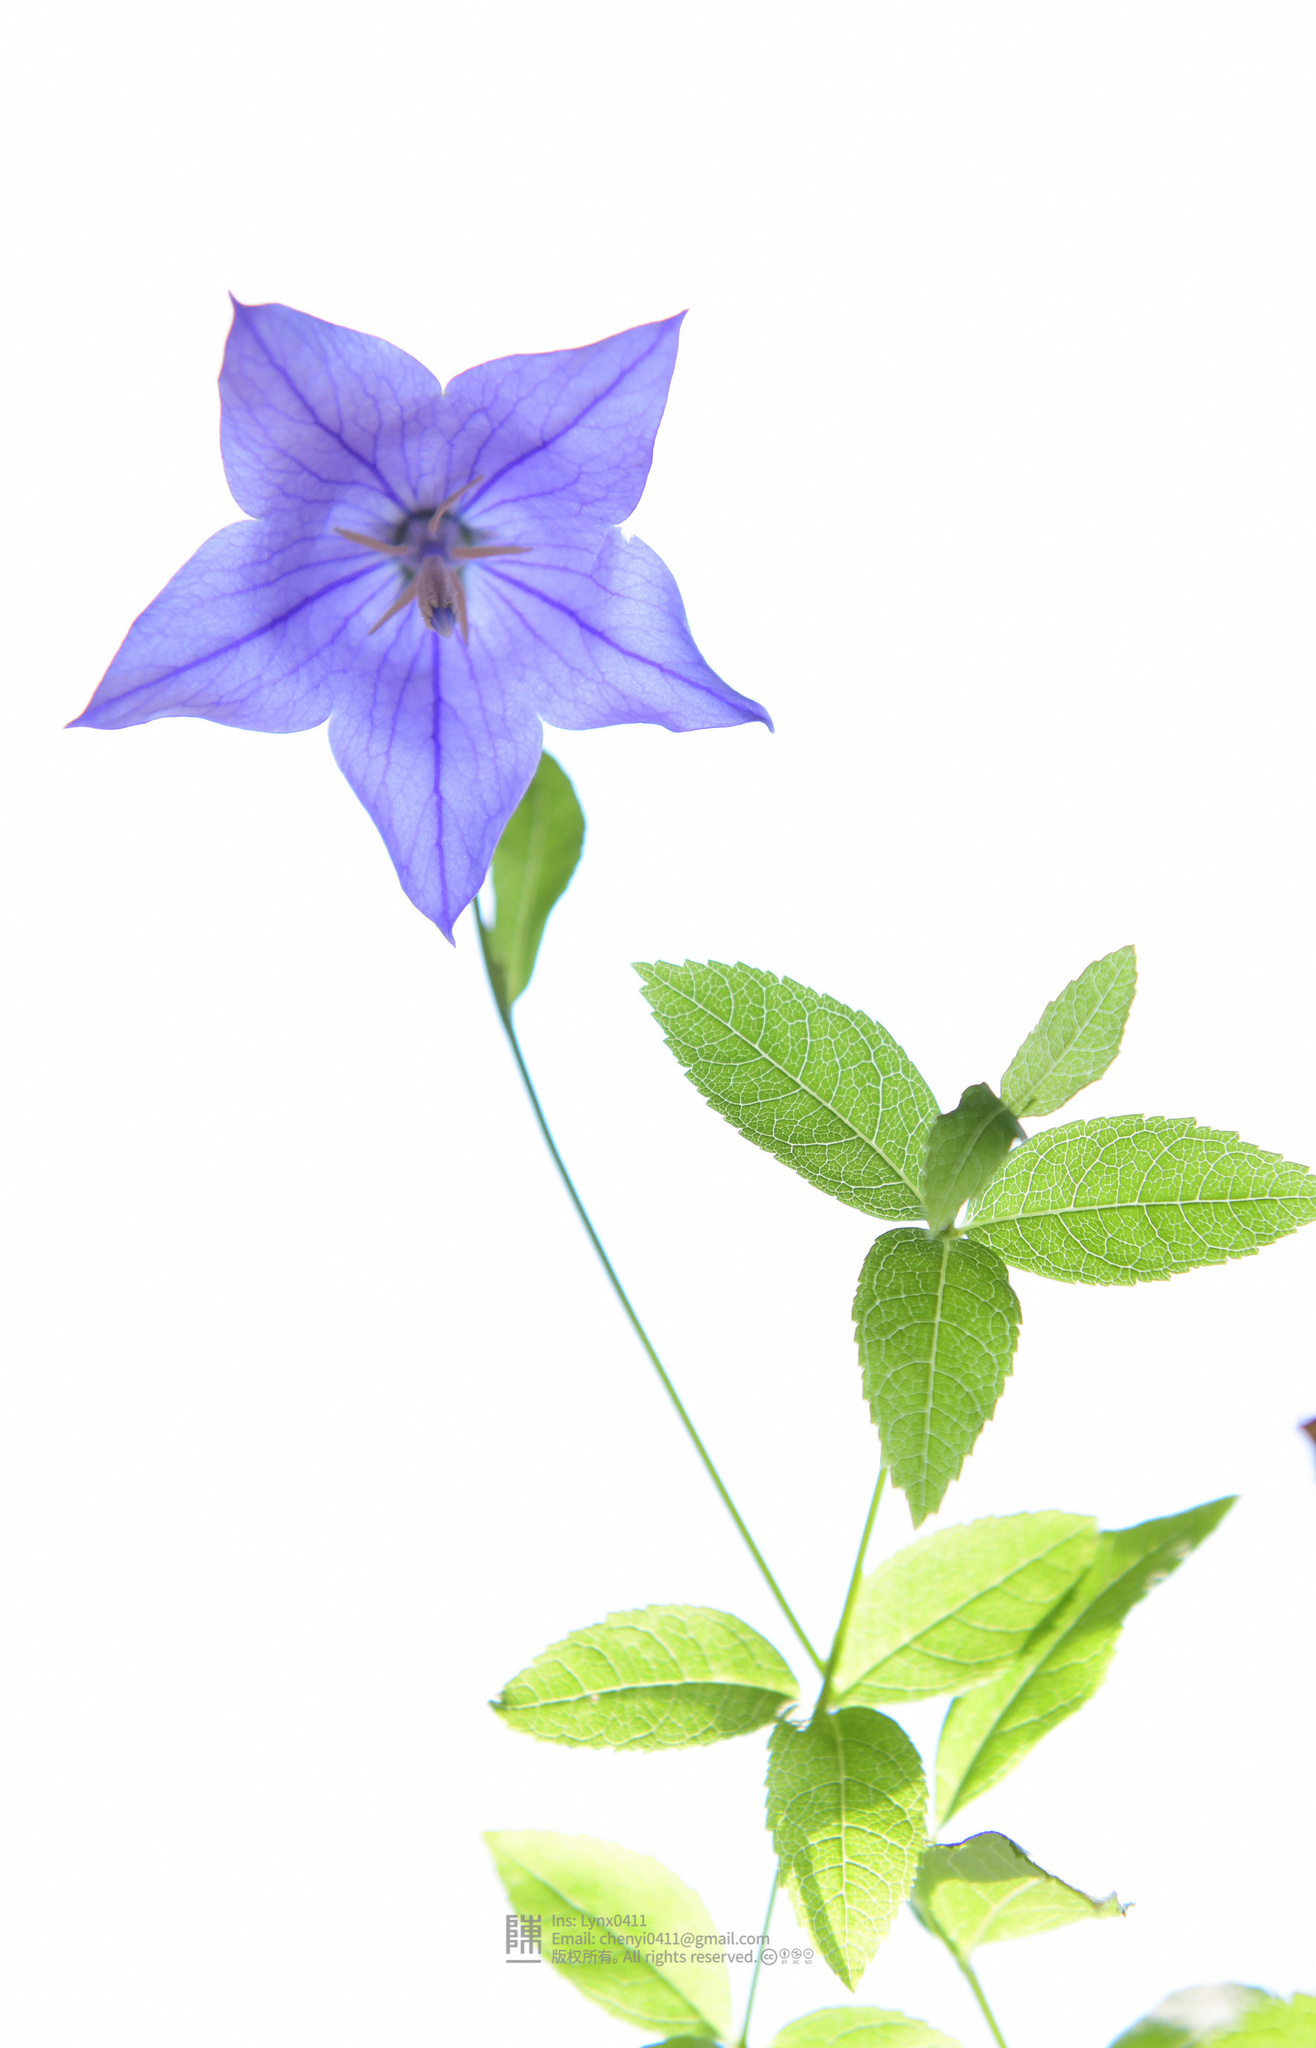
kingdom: Plantae
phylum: Tracheophyta
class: Magnoliopsida
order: Asterales
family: Campanulaceae
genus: Platycodon
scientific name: Platycodon grandiflorus
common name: Balloon-flower
